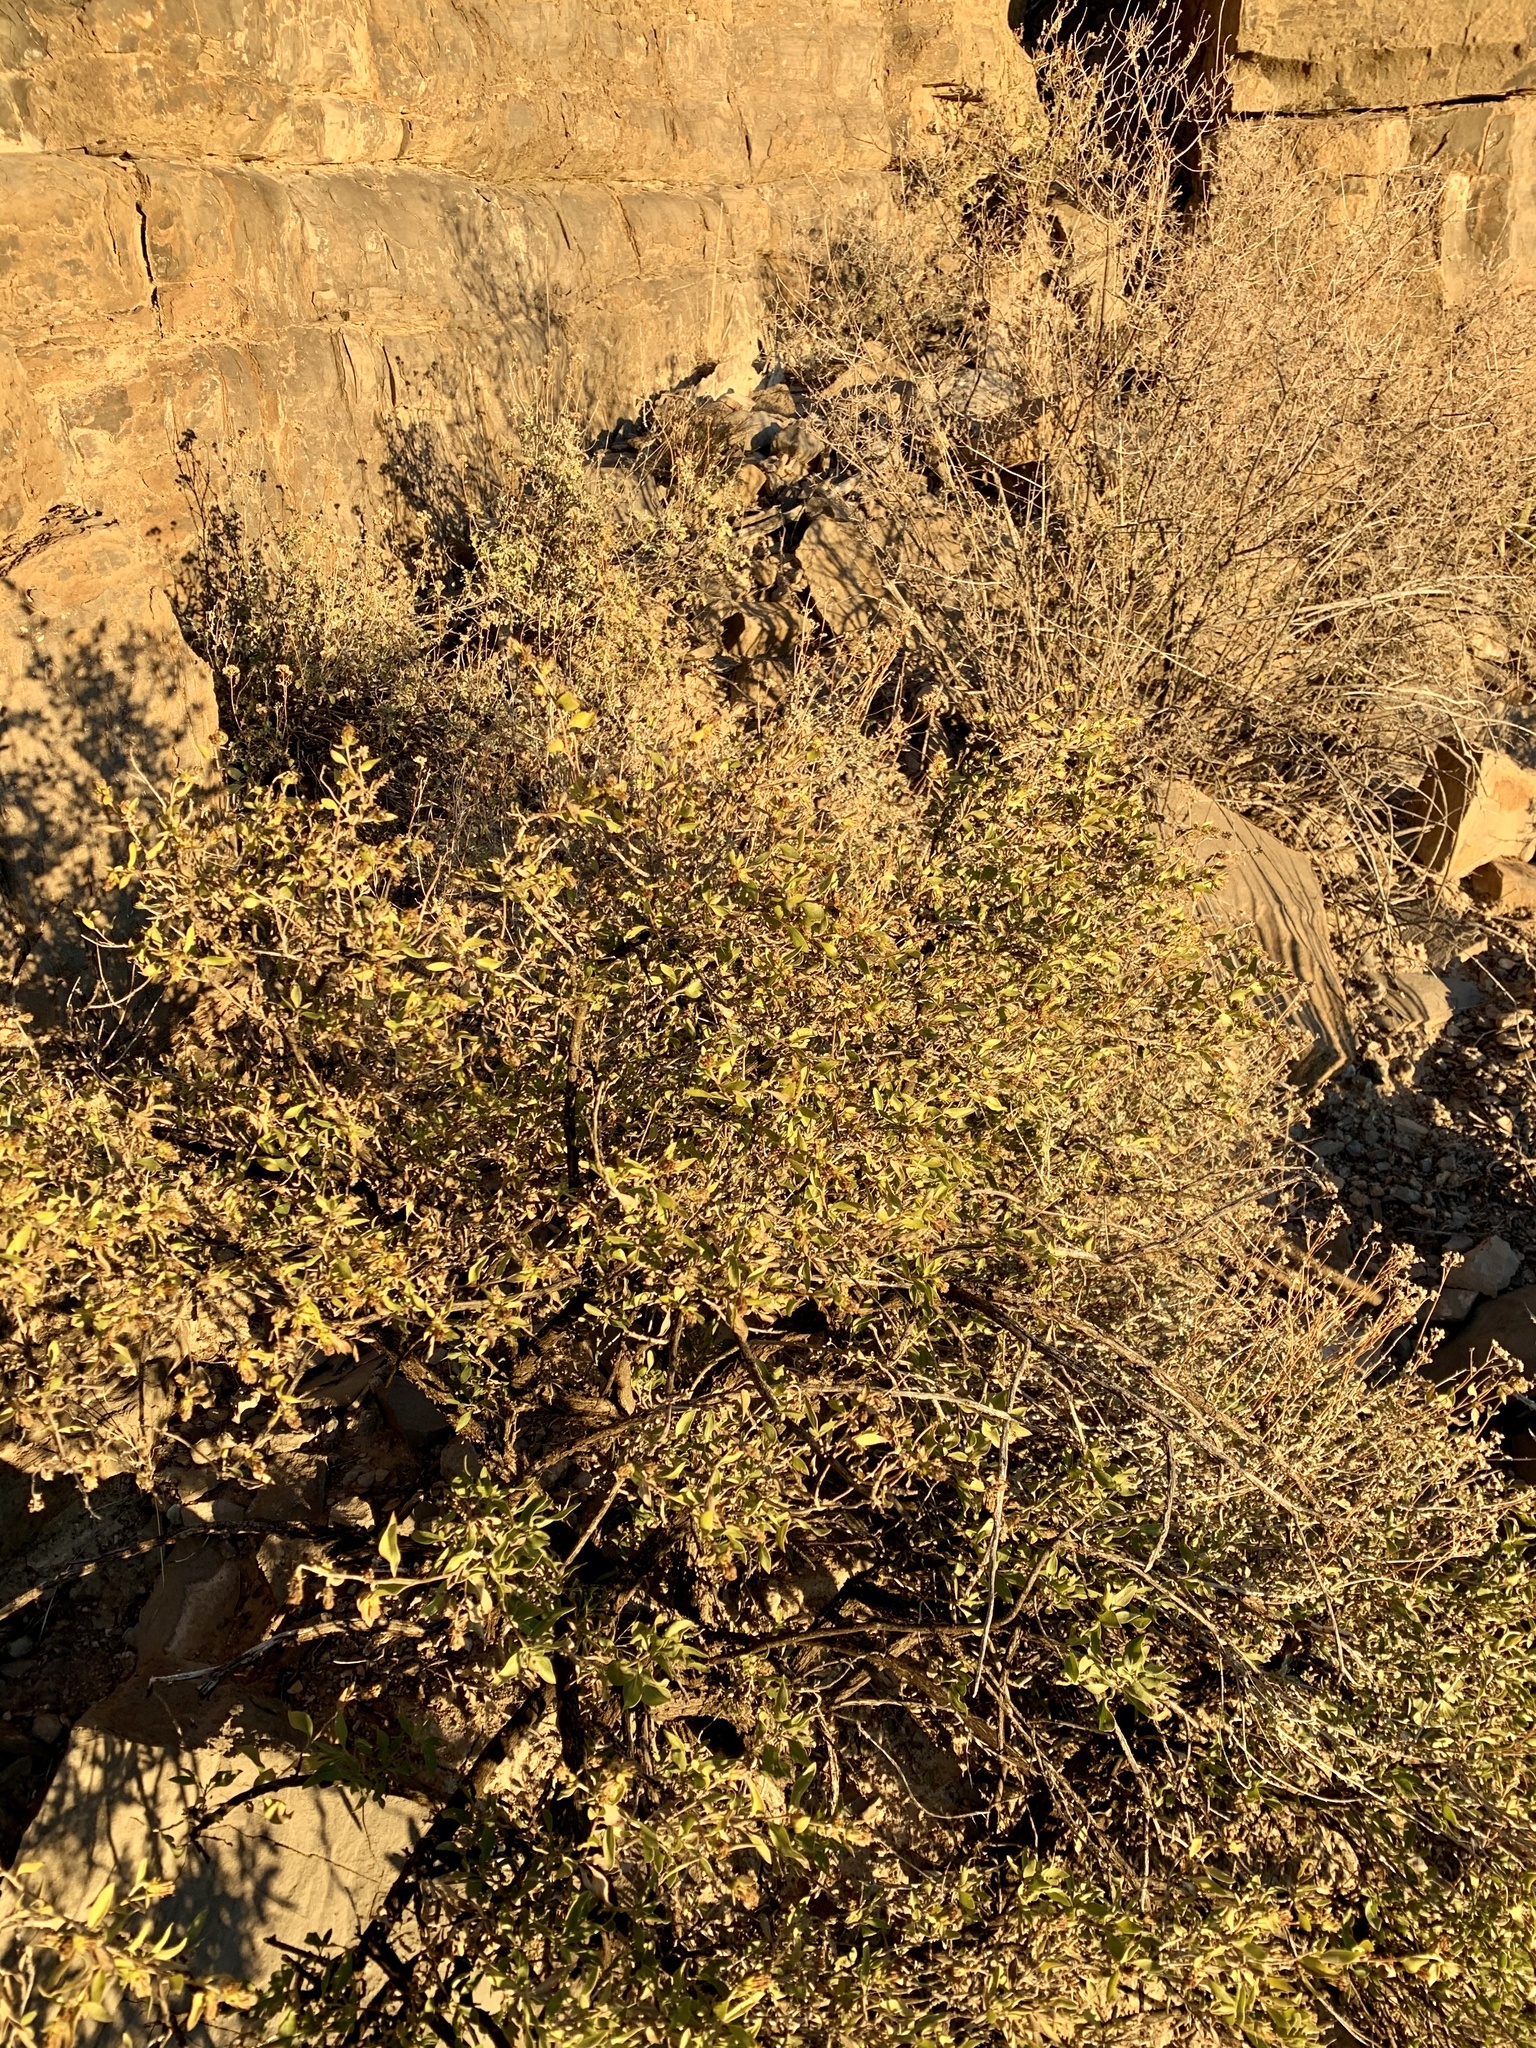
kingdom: Plantae
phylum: Tracheophyta
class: Magnoliopsida
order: Asterales
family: Asteraceae
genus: Flourensia
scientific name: Flourensia cernua
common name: Varnishbush
